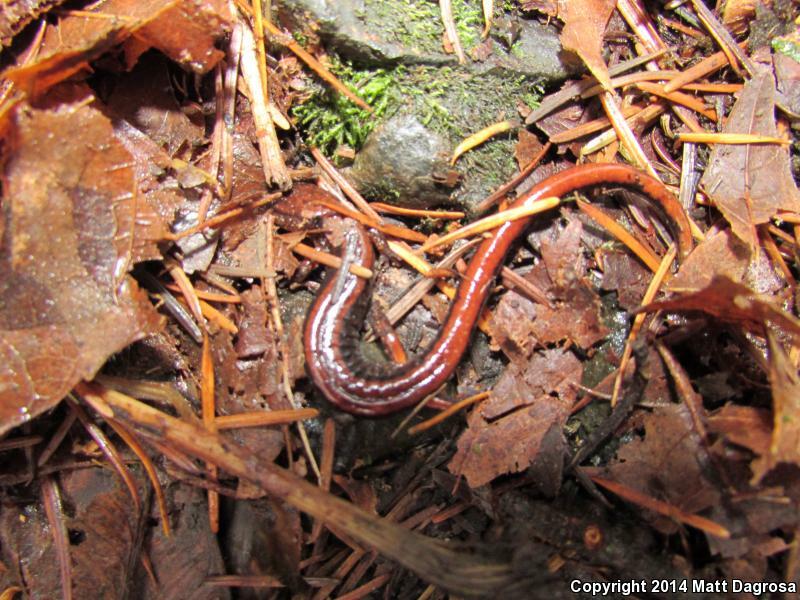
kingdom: Animalia
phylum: Chordata
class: Amphibia
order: Caudata
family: Plethodontidae
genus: Plethodon
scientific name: Plethodon vehiculum
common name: Western red-backed salamander
